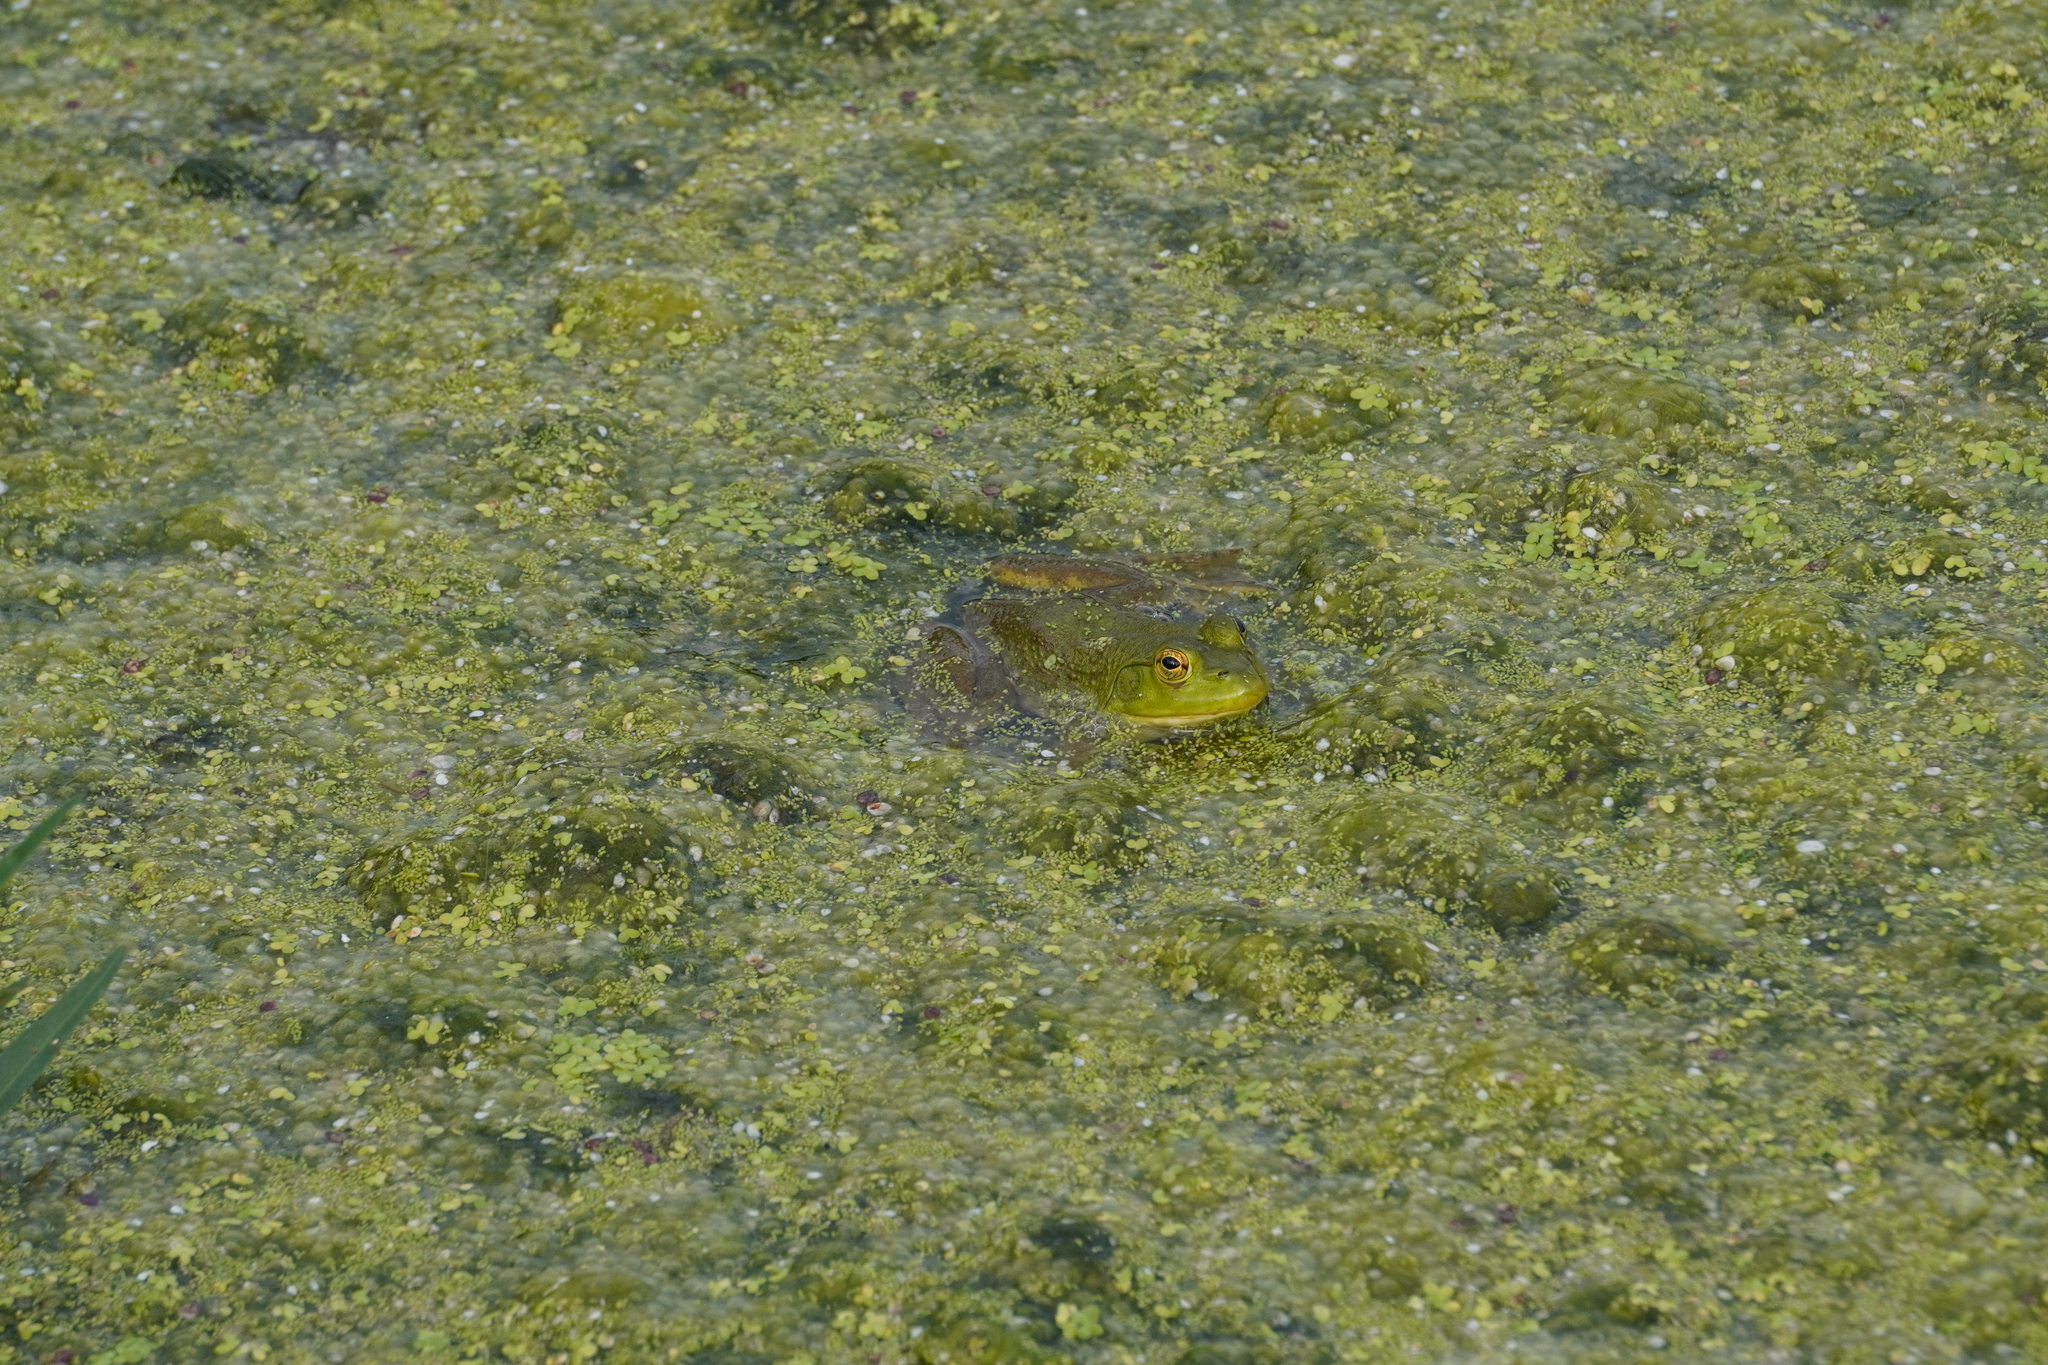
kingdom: Animalia
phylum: Chordata
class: Amphibia
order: Anura
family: Ranidae
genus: Lithobates
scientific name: Lithobates catesbeianus
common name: American bullfrog
